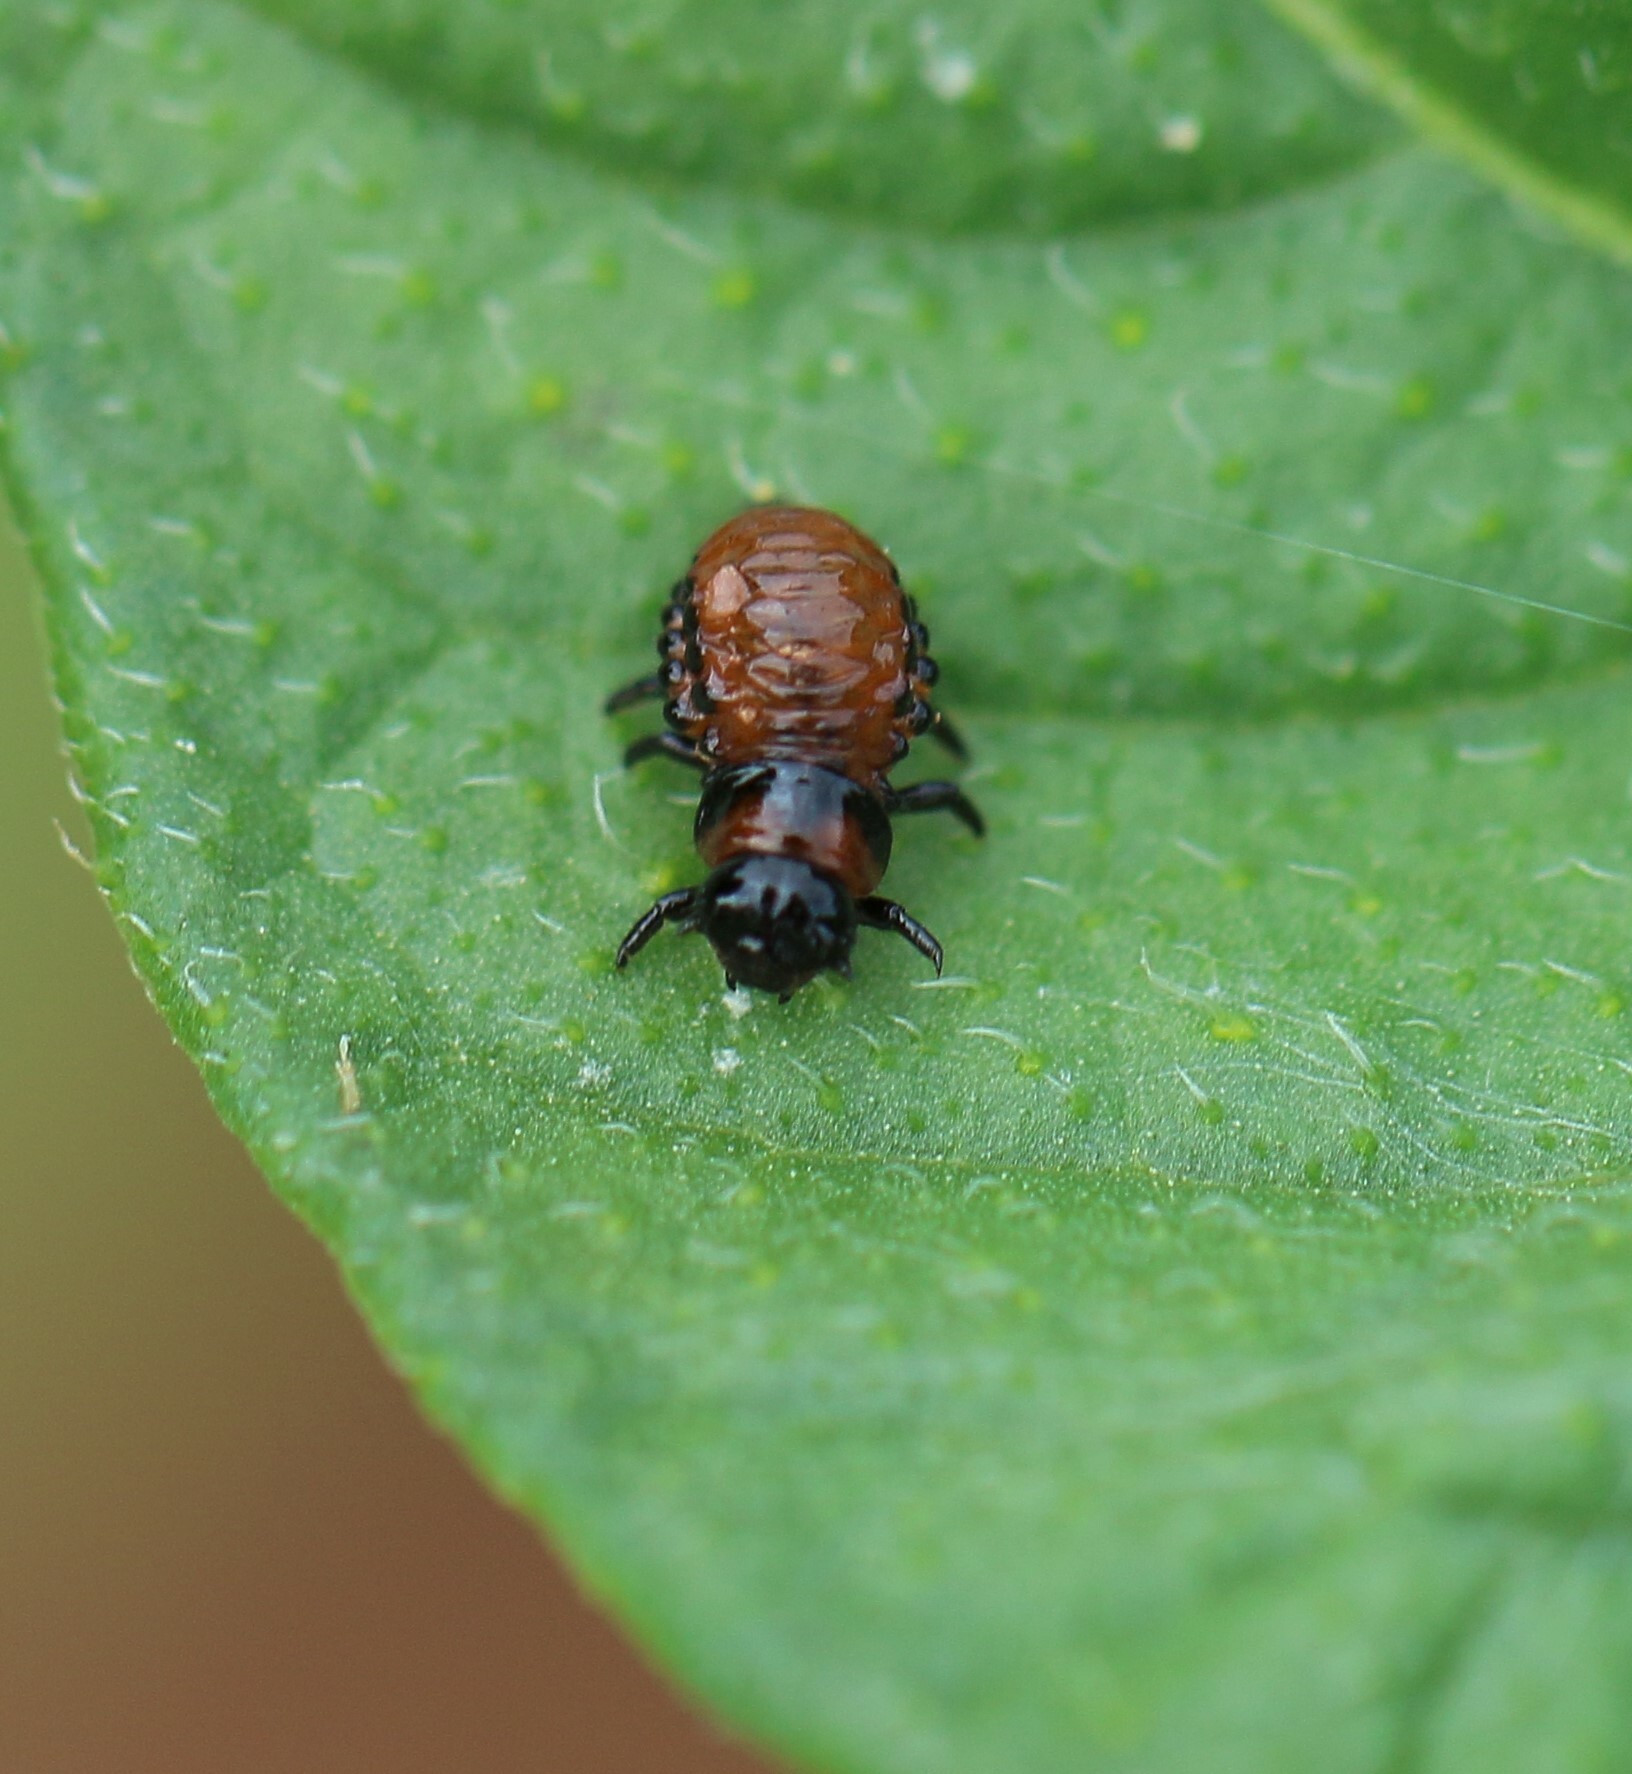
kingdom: Animalia
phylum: Arthropoda
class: Insecta
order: Coleoptera
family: Chrysomelidae
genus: Leptinotarsa
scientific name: Leptinotarsa decemlineata
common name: Colorado potato beetle
